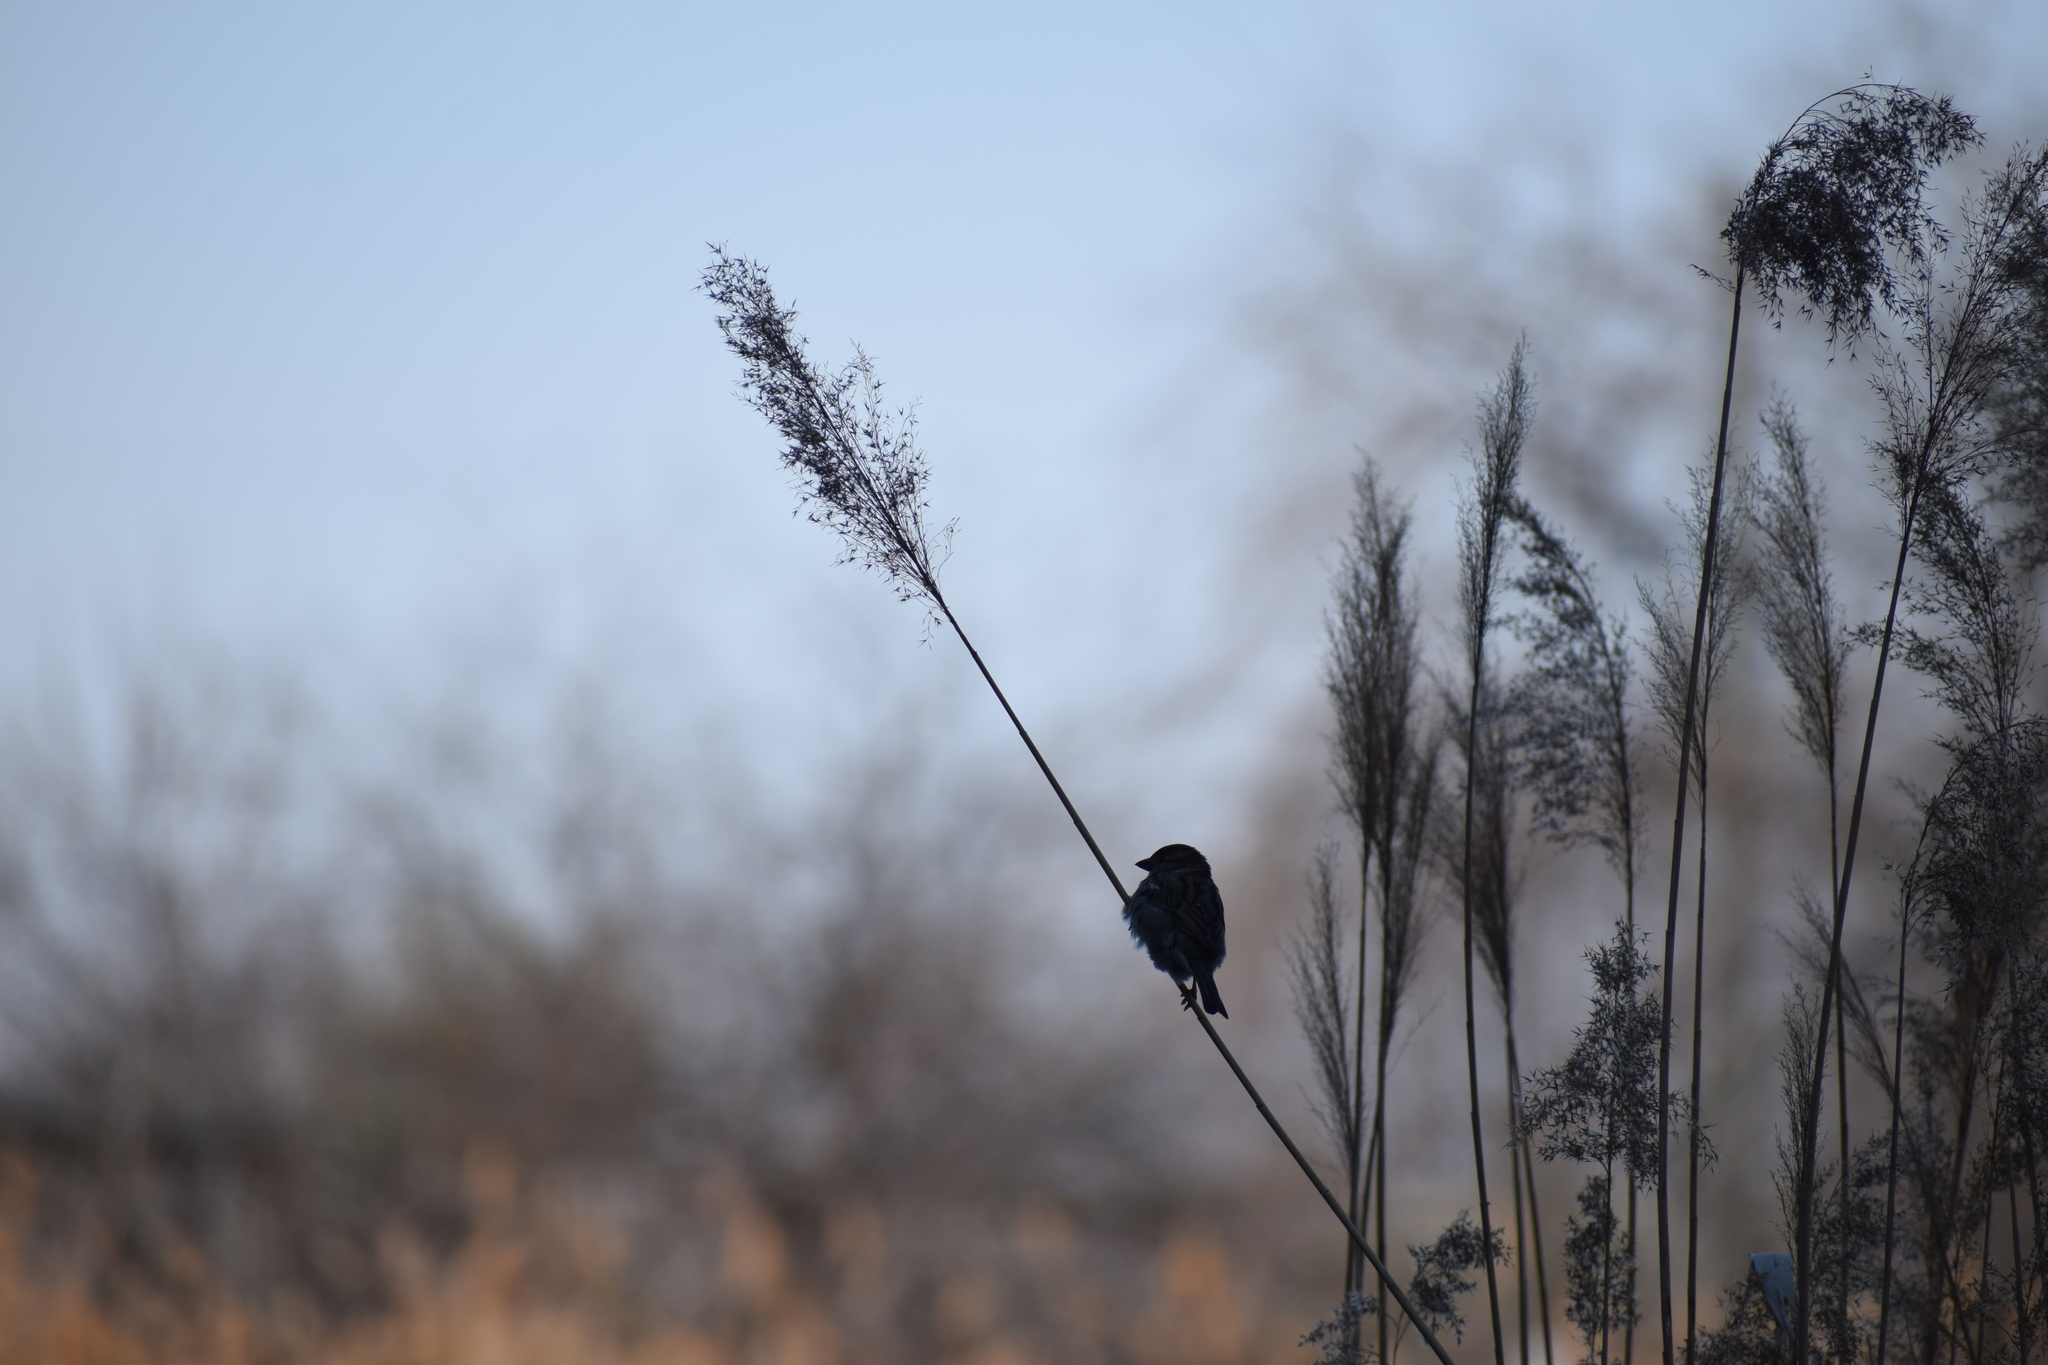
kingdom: Animalia
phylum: Chordata
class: Aves
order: Passeriformes
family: Passeridae
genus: Passer
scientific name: Passer domesticus
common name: House sparrow
